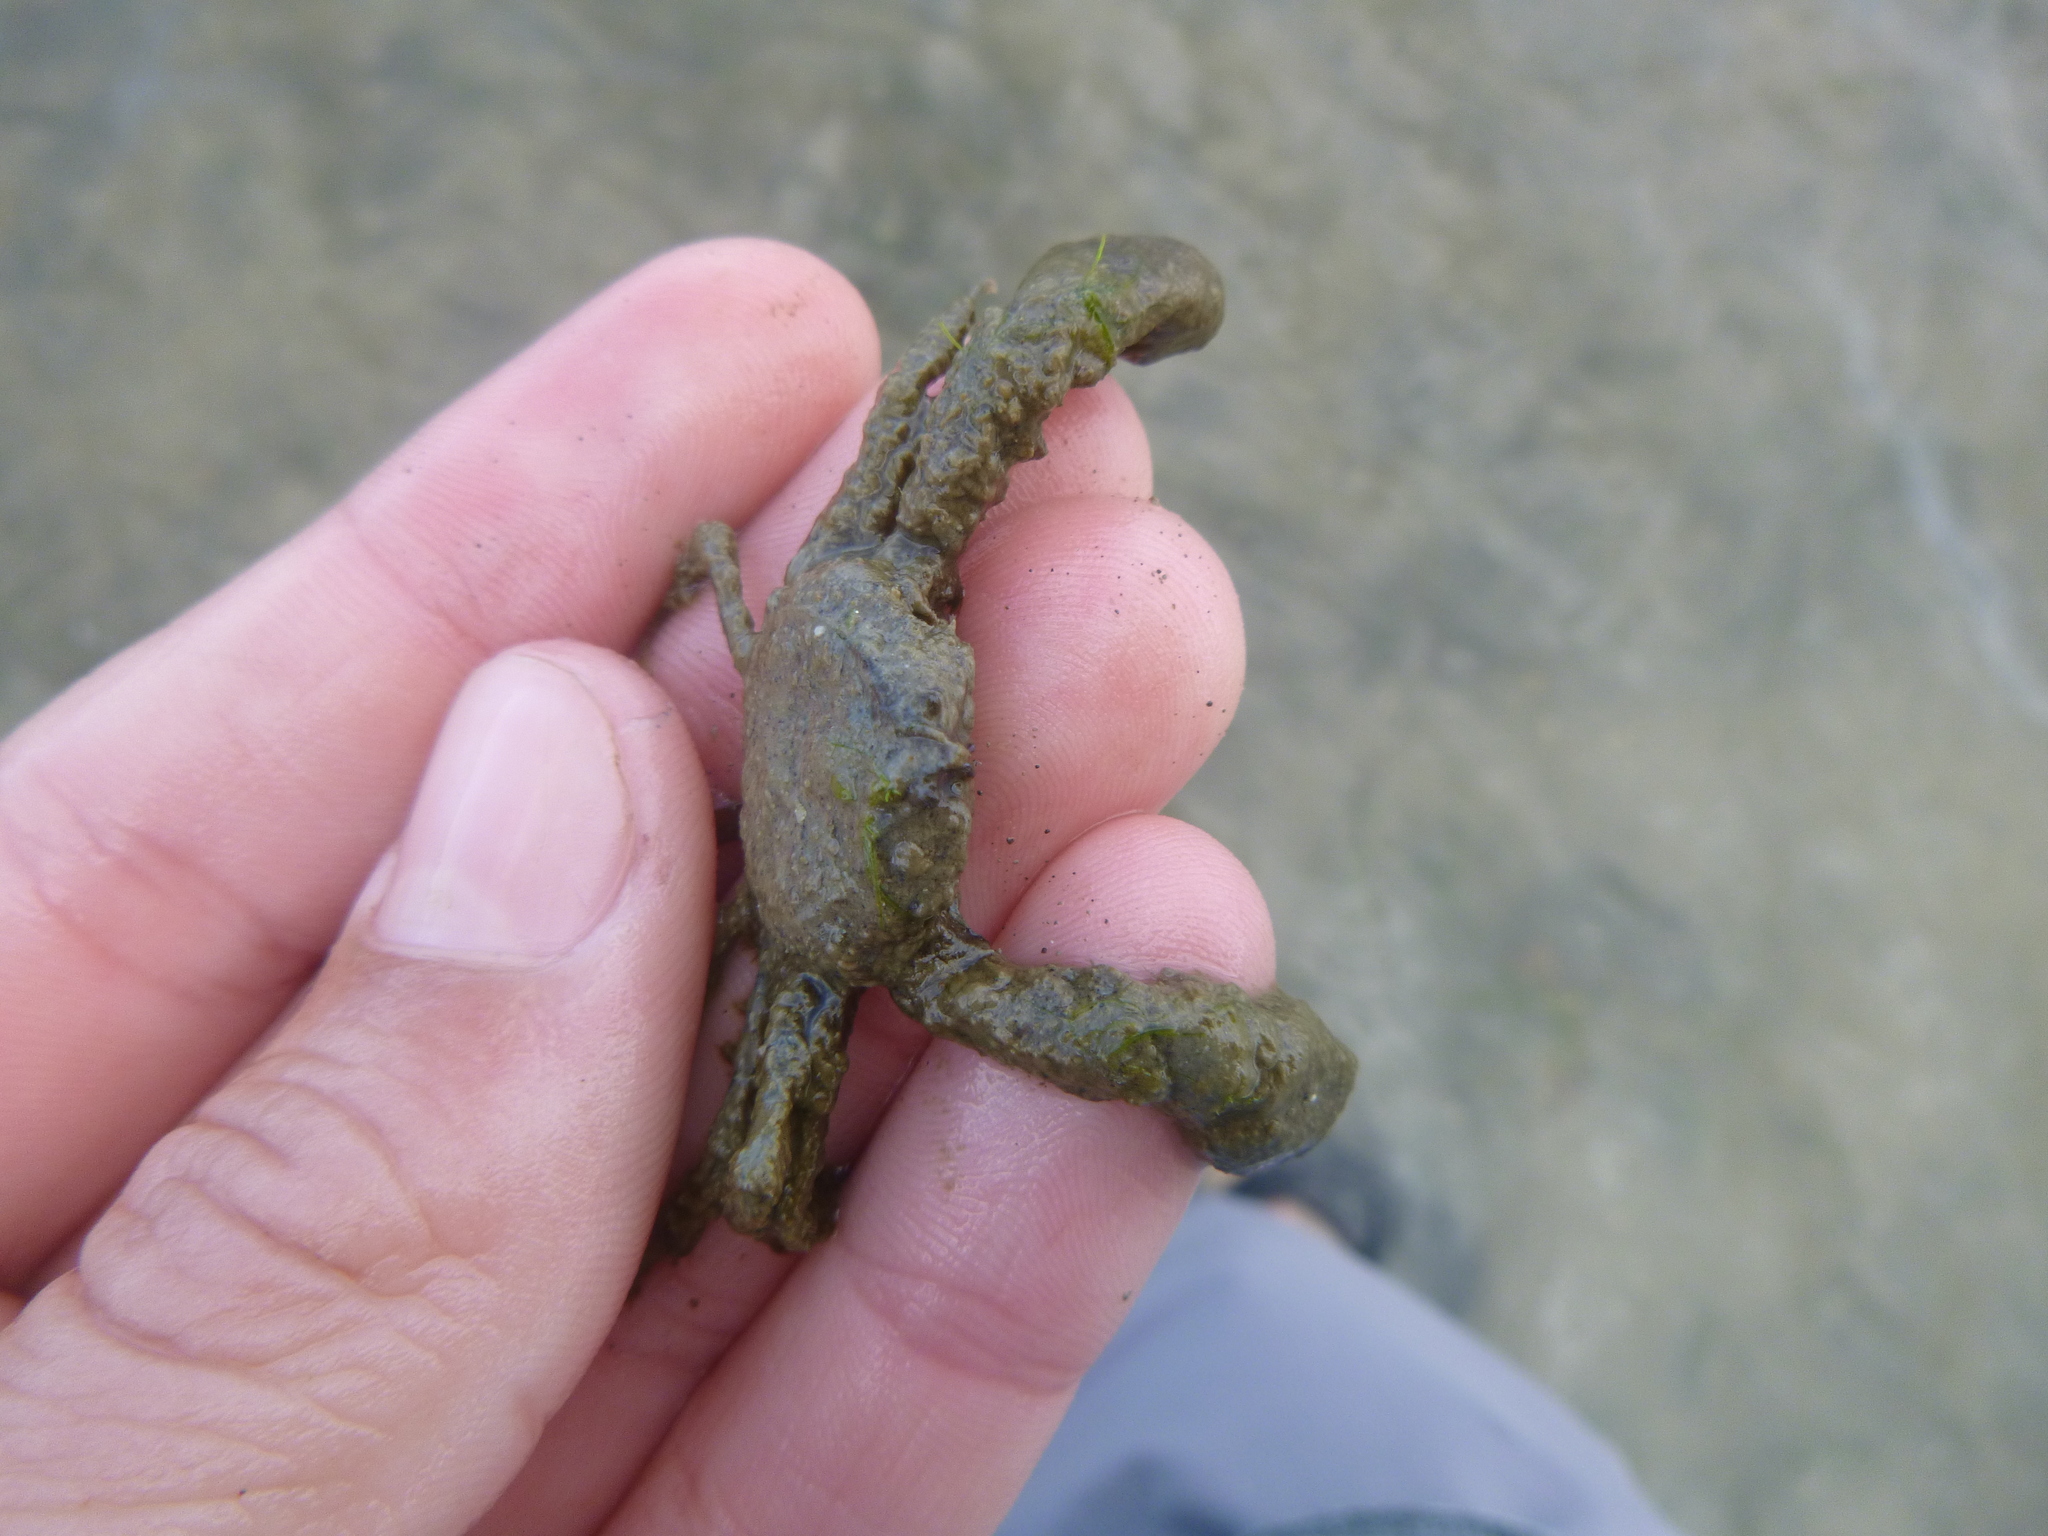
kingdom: Animalia
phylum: Arthropoda
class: Malacostraca
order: Decapoda
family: Hymenosomatidae
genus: Halicarcinus
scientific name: Halicarcinus whitei
